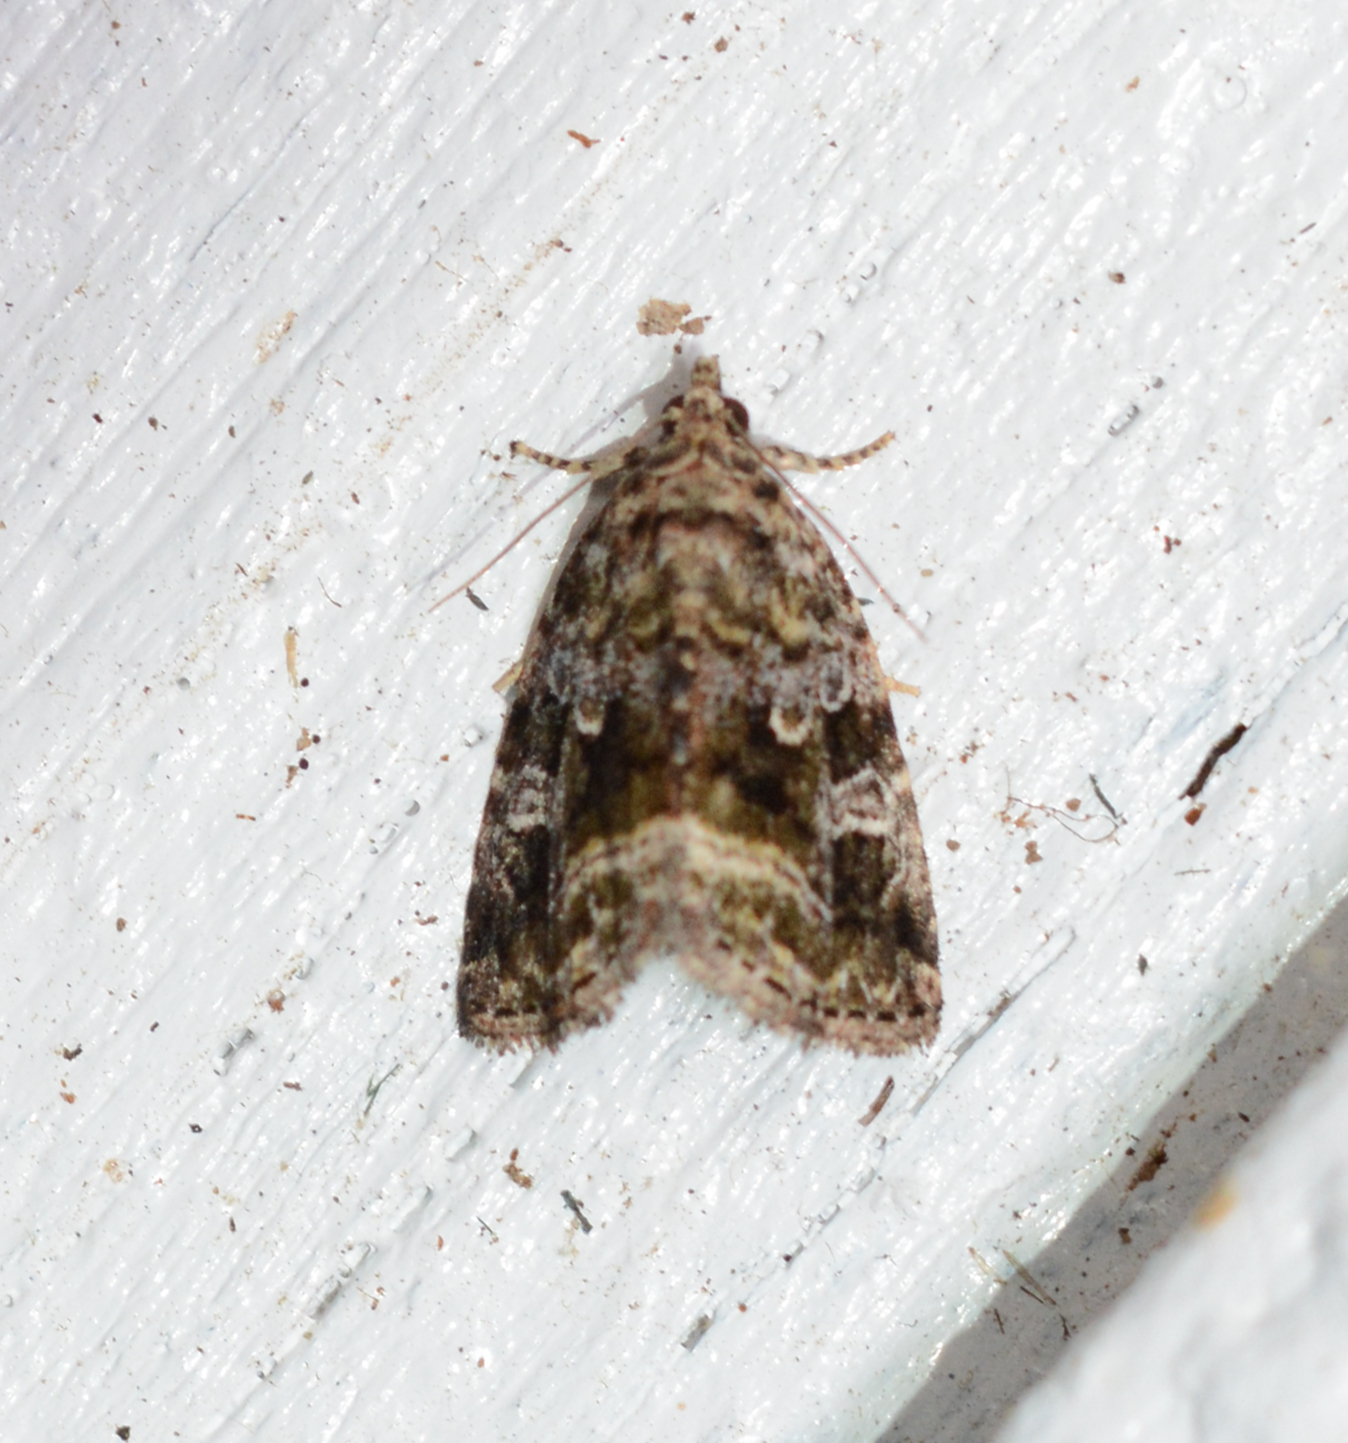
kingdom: Animalia
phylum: Arthropoda
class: Insecta
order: Lepidoptera
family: Noctuidae
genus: Protodeltote
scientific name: Protodeltote muscosula
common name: Large mossy glyph
